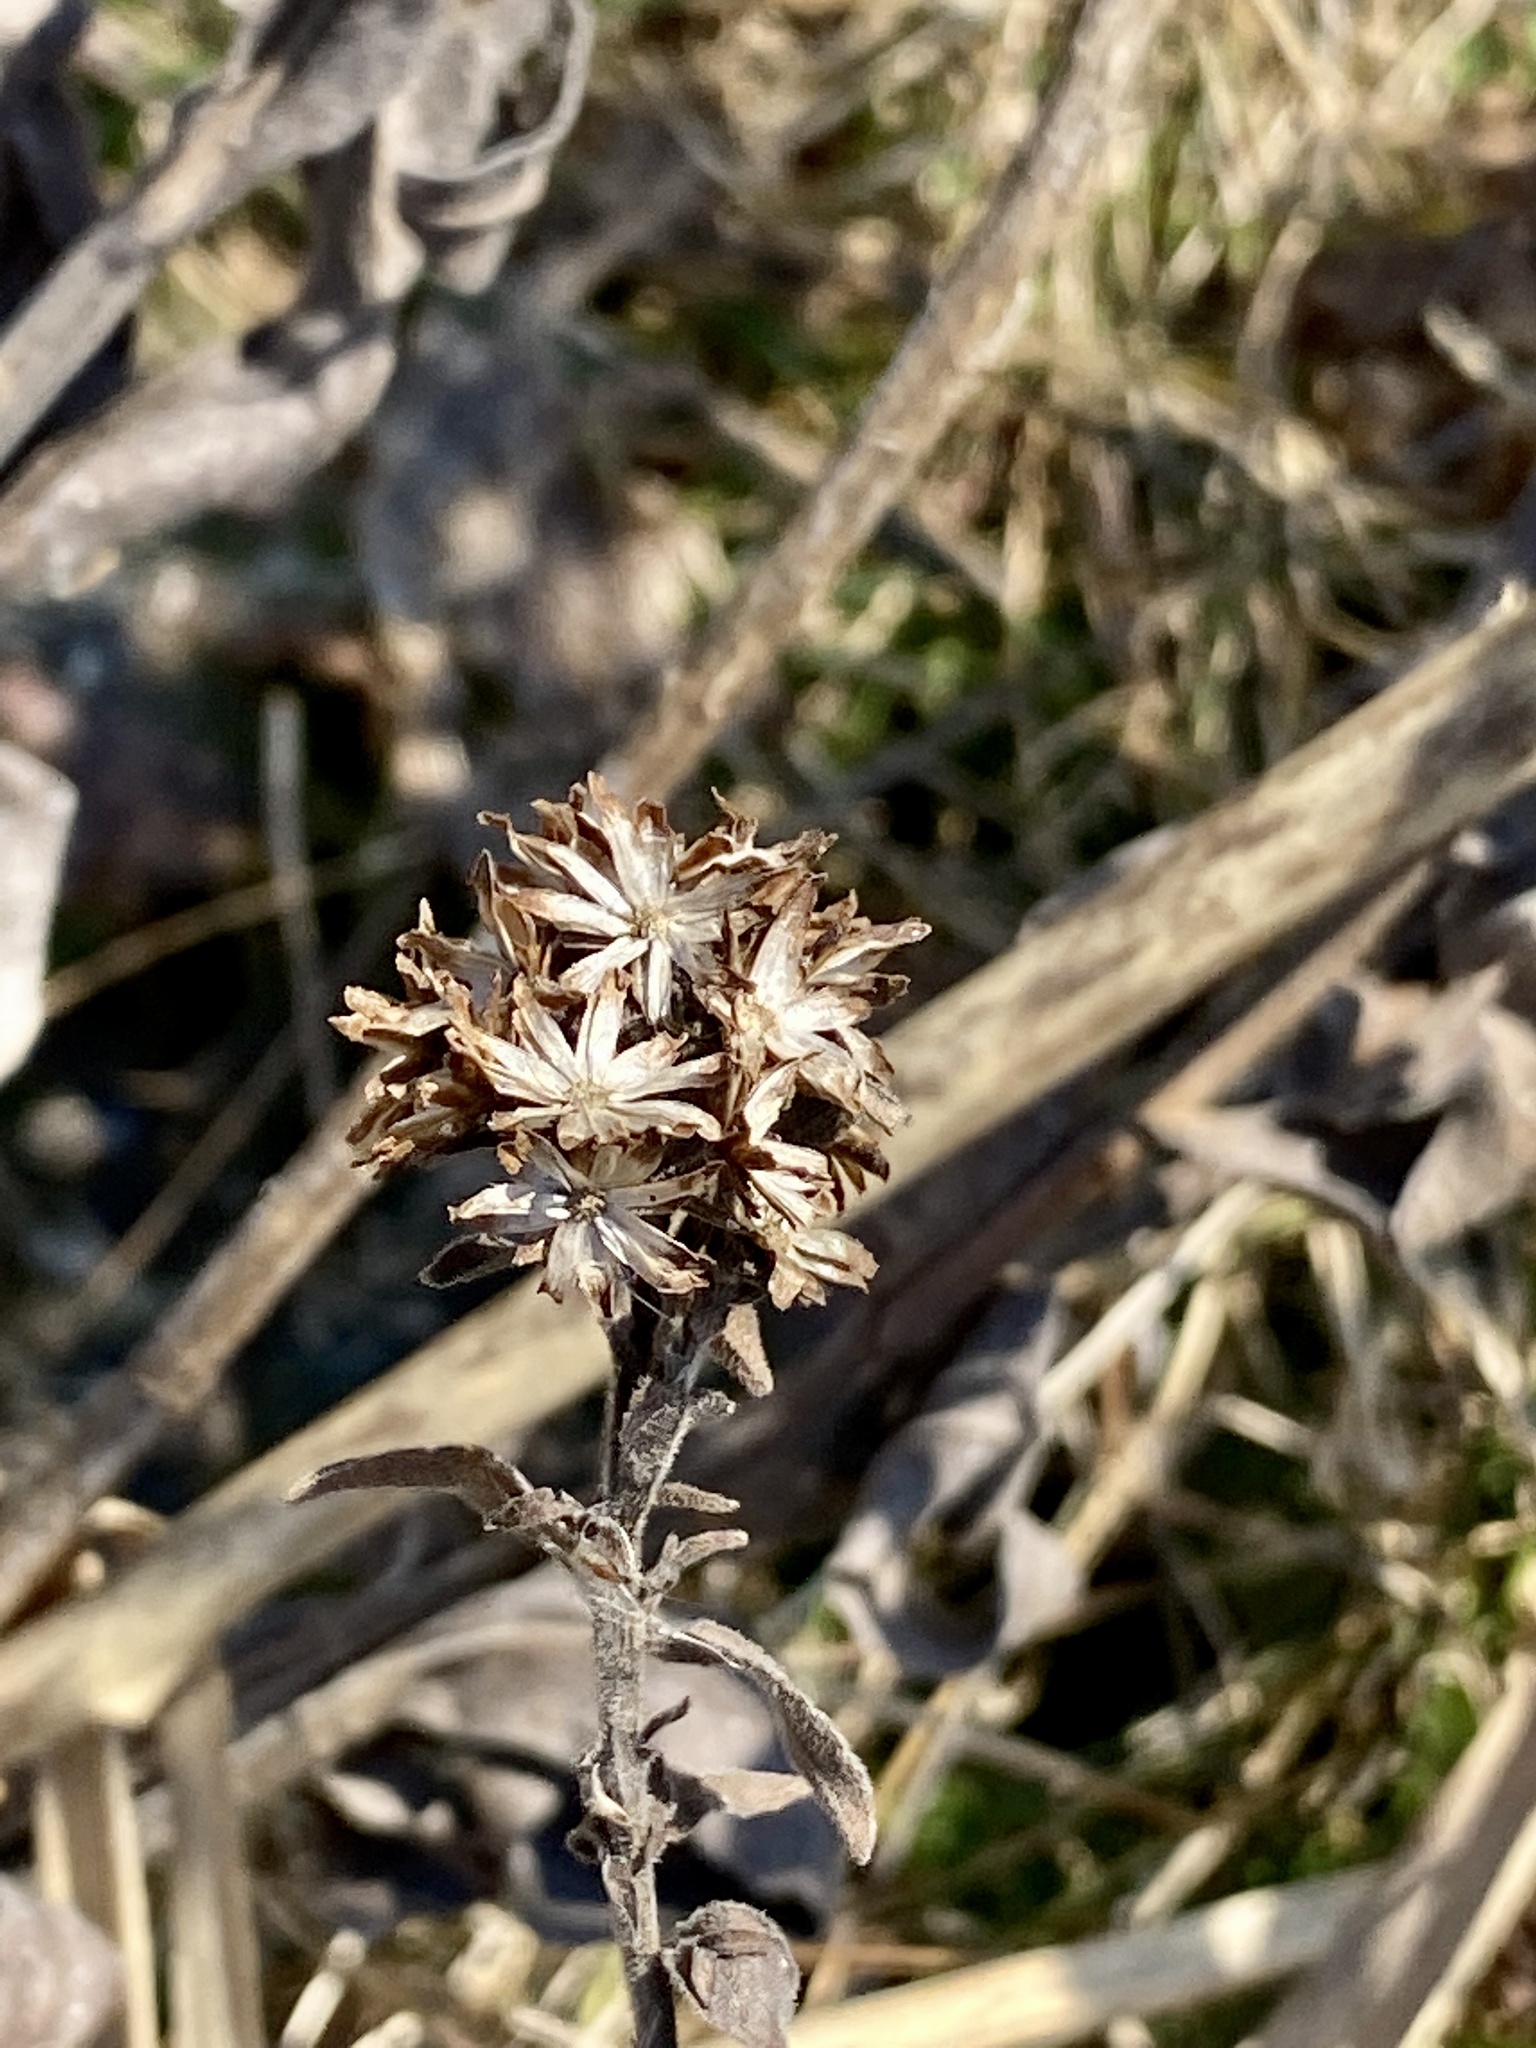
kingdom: Plantae
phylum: Tracheophyta
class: Magnoliopsida
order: Asterales
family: Asteraceae
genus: Solidago
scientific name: Solidago rigida
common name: Rigid goldenrod
